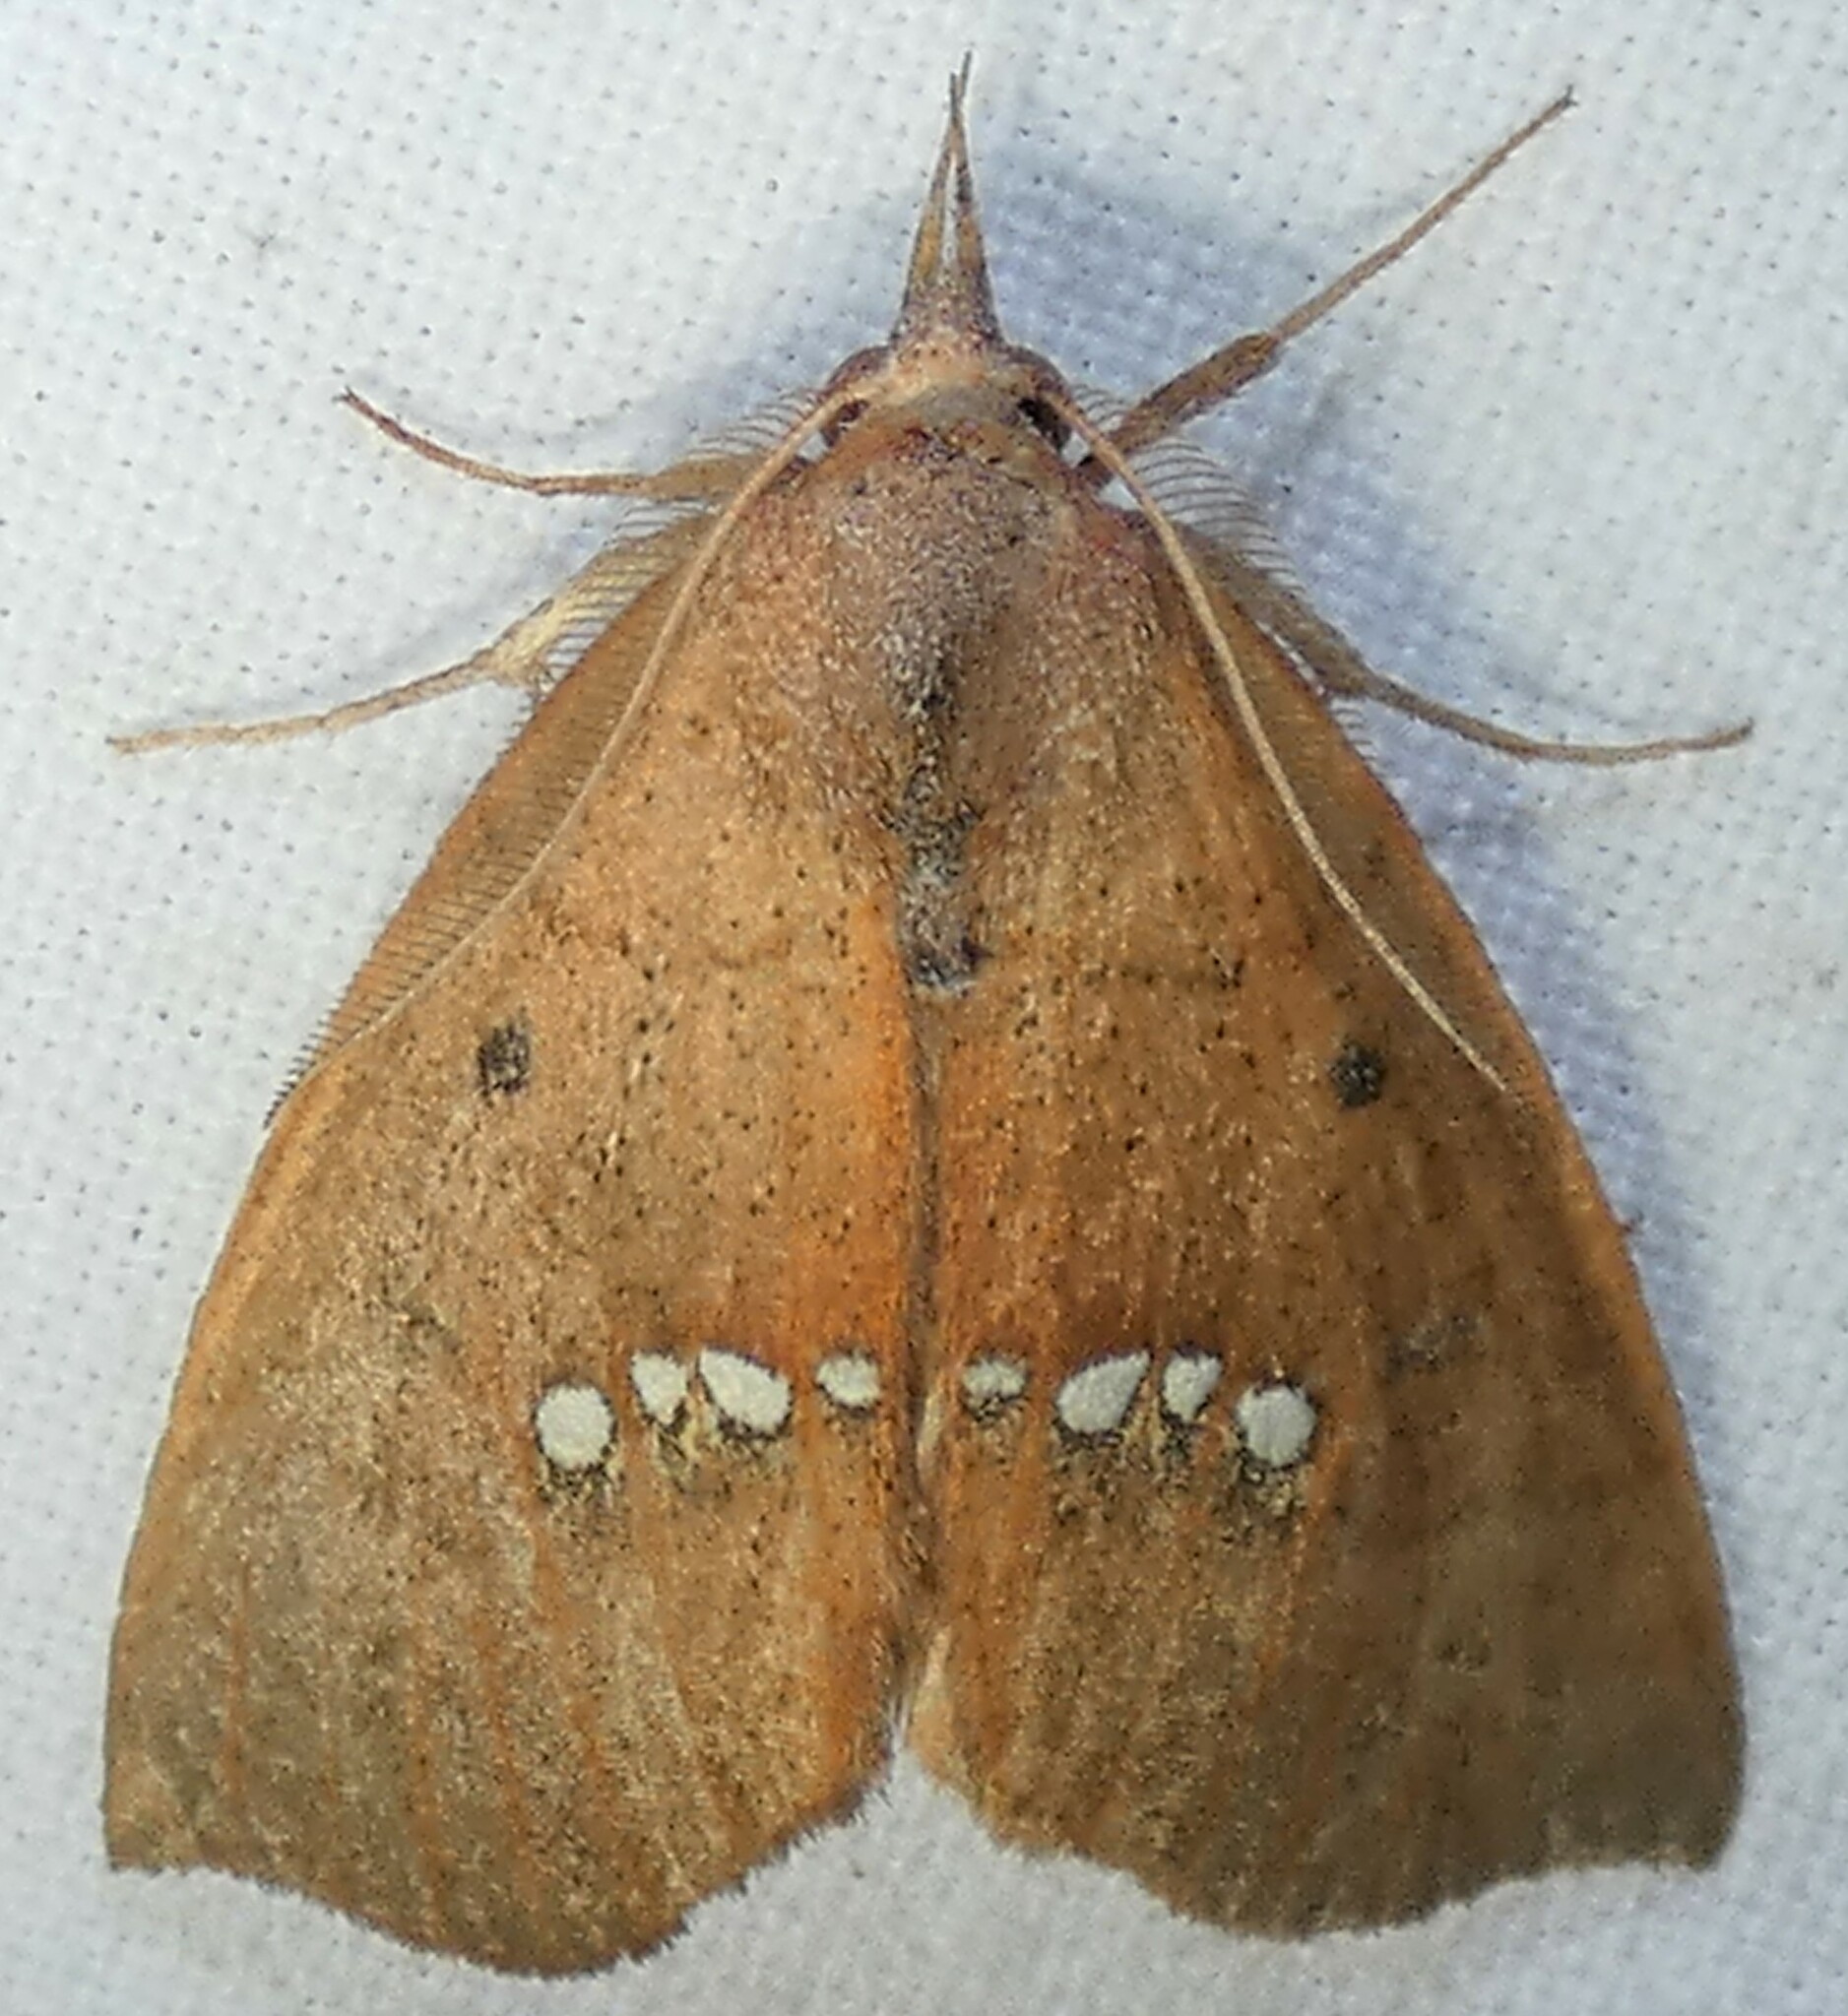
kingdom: Animalia
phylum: Arthropoda
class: Insecta
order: Lepidoptera
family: Erebidae
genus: Hypsoropha
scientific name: Hypsoropha monilis
